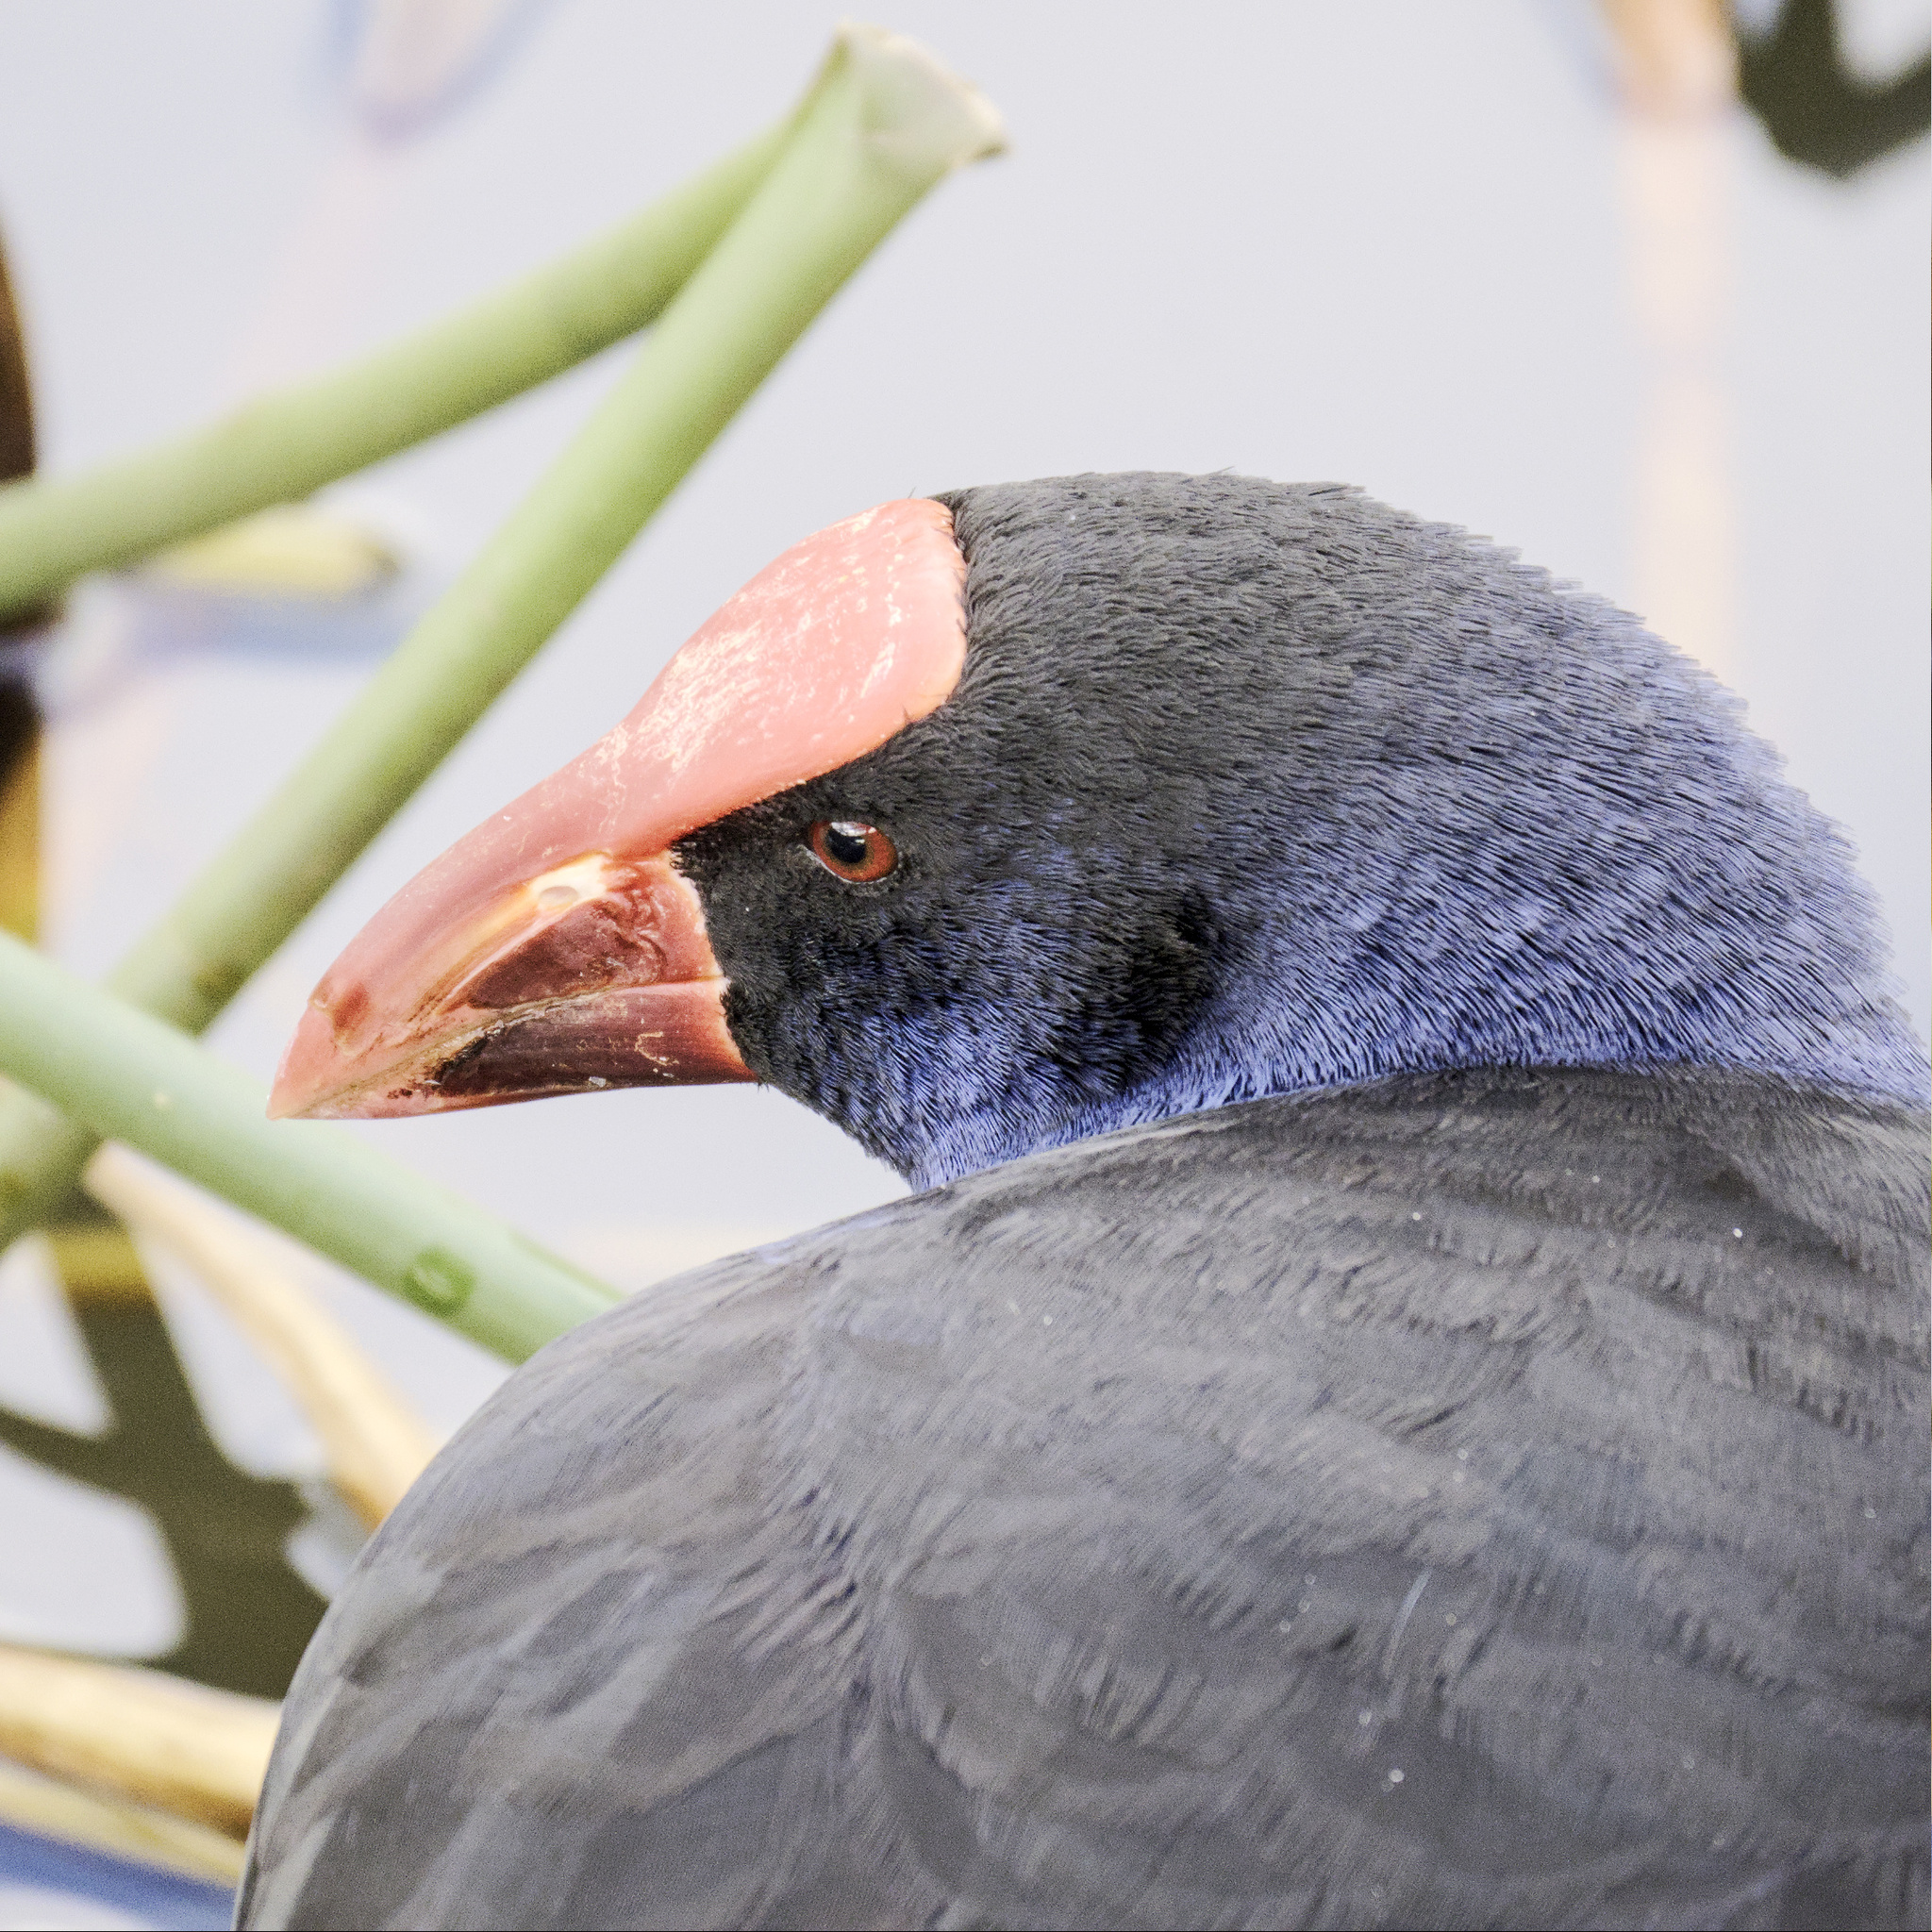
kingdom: Animalia
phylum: Chordata
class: Aves
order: Gruiformes
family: Rallidae
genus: Porphyrio
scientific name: Porphyrio melanotus
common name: Australasian swamphen
